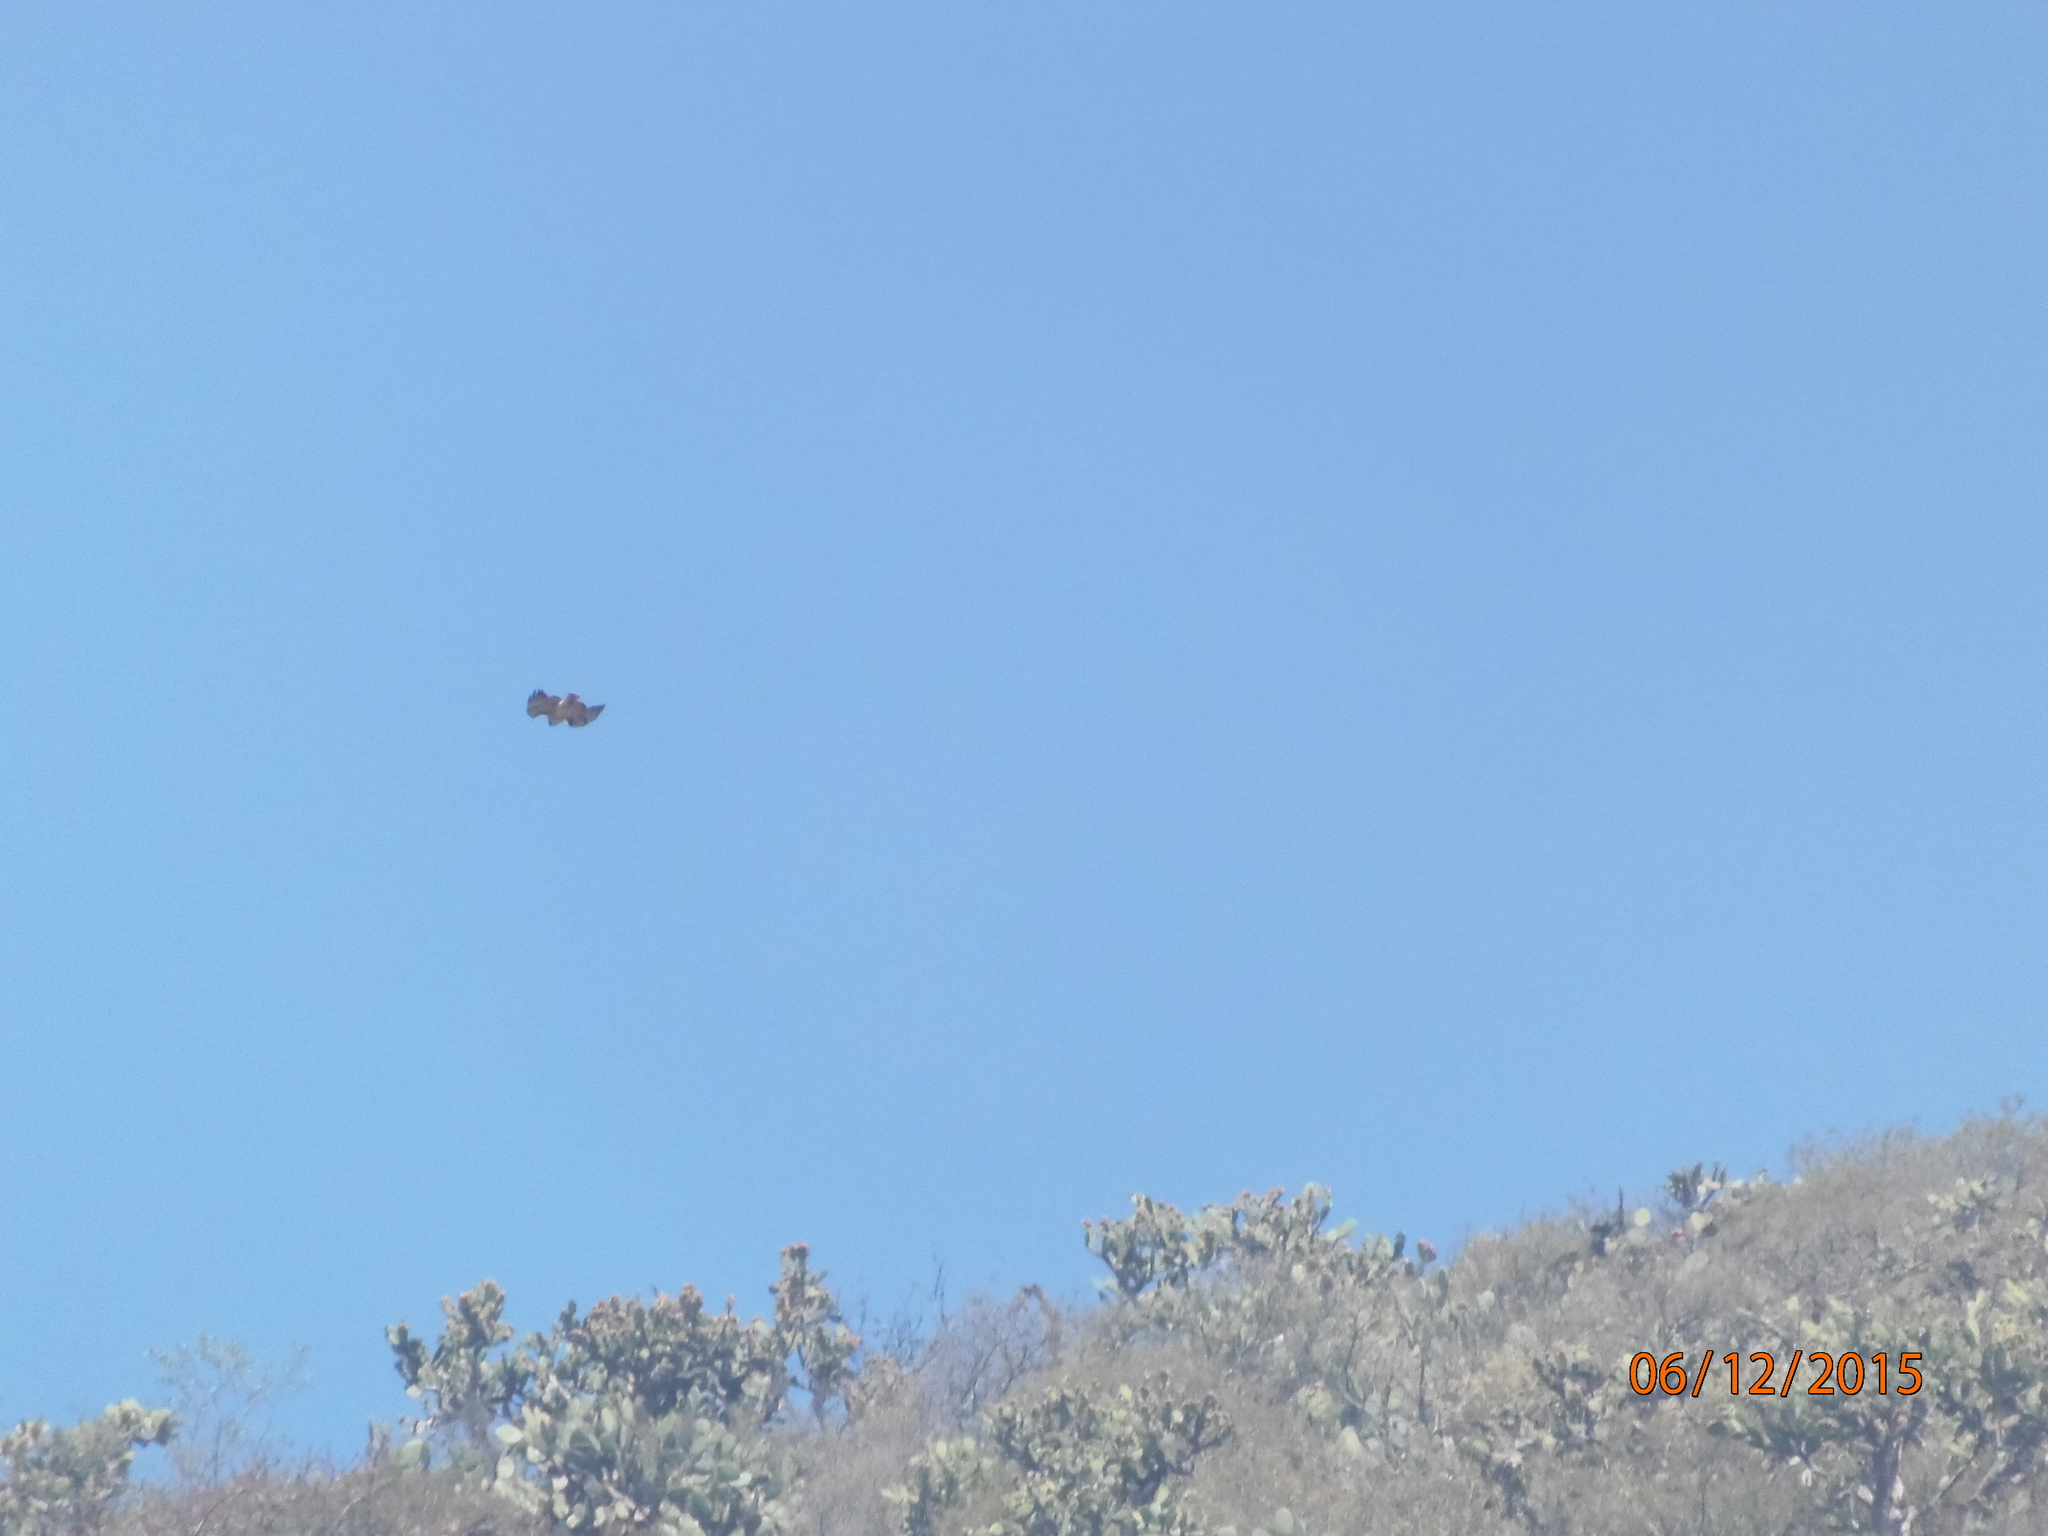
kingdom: Animalia
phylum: Chordata
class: Aves
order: Accipitriformes
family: Accipitridae
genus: Buteo
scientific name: Buteo jamaicensis
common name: Red-tailed hawk
